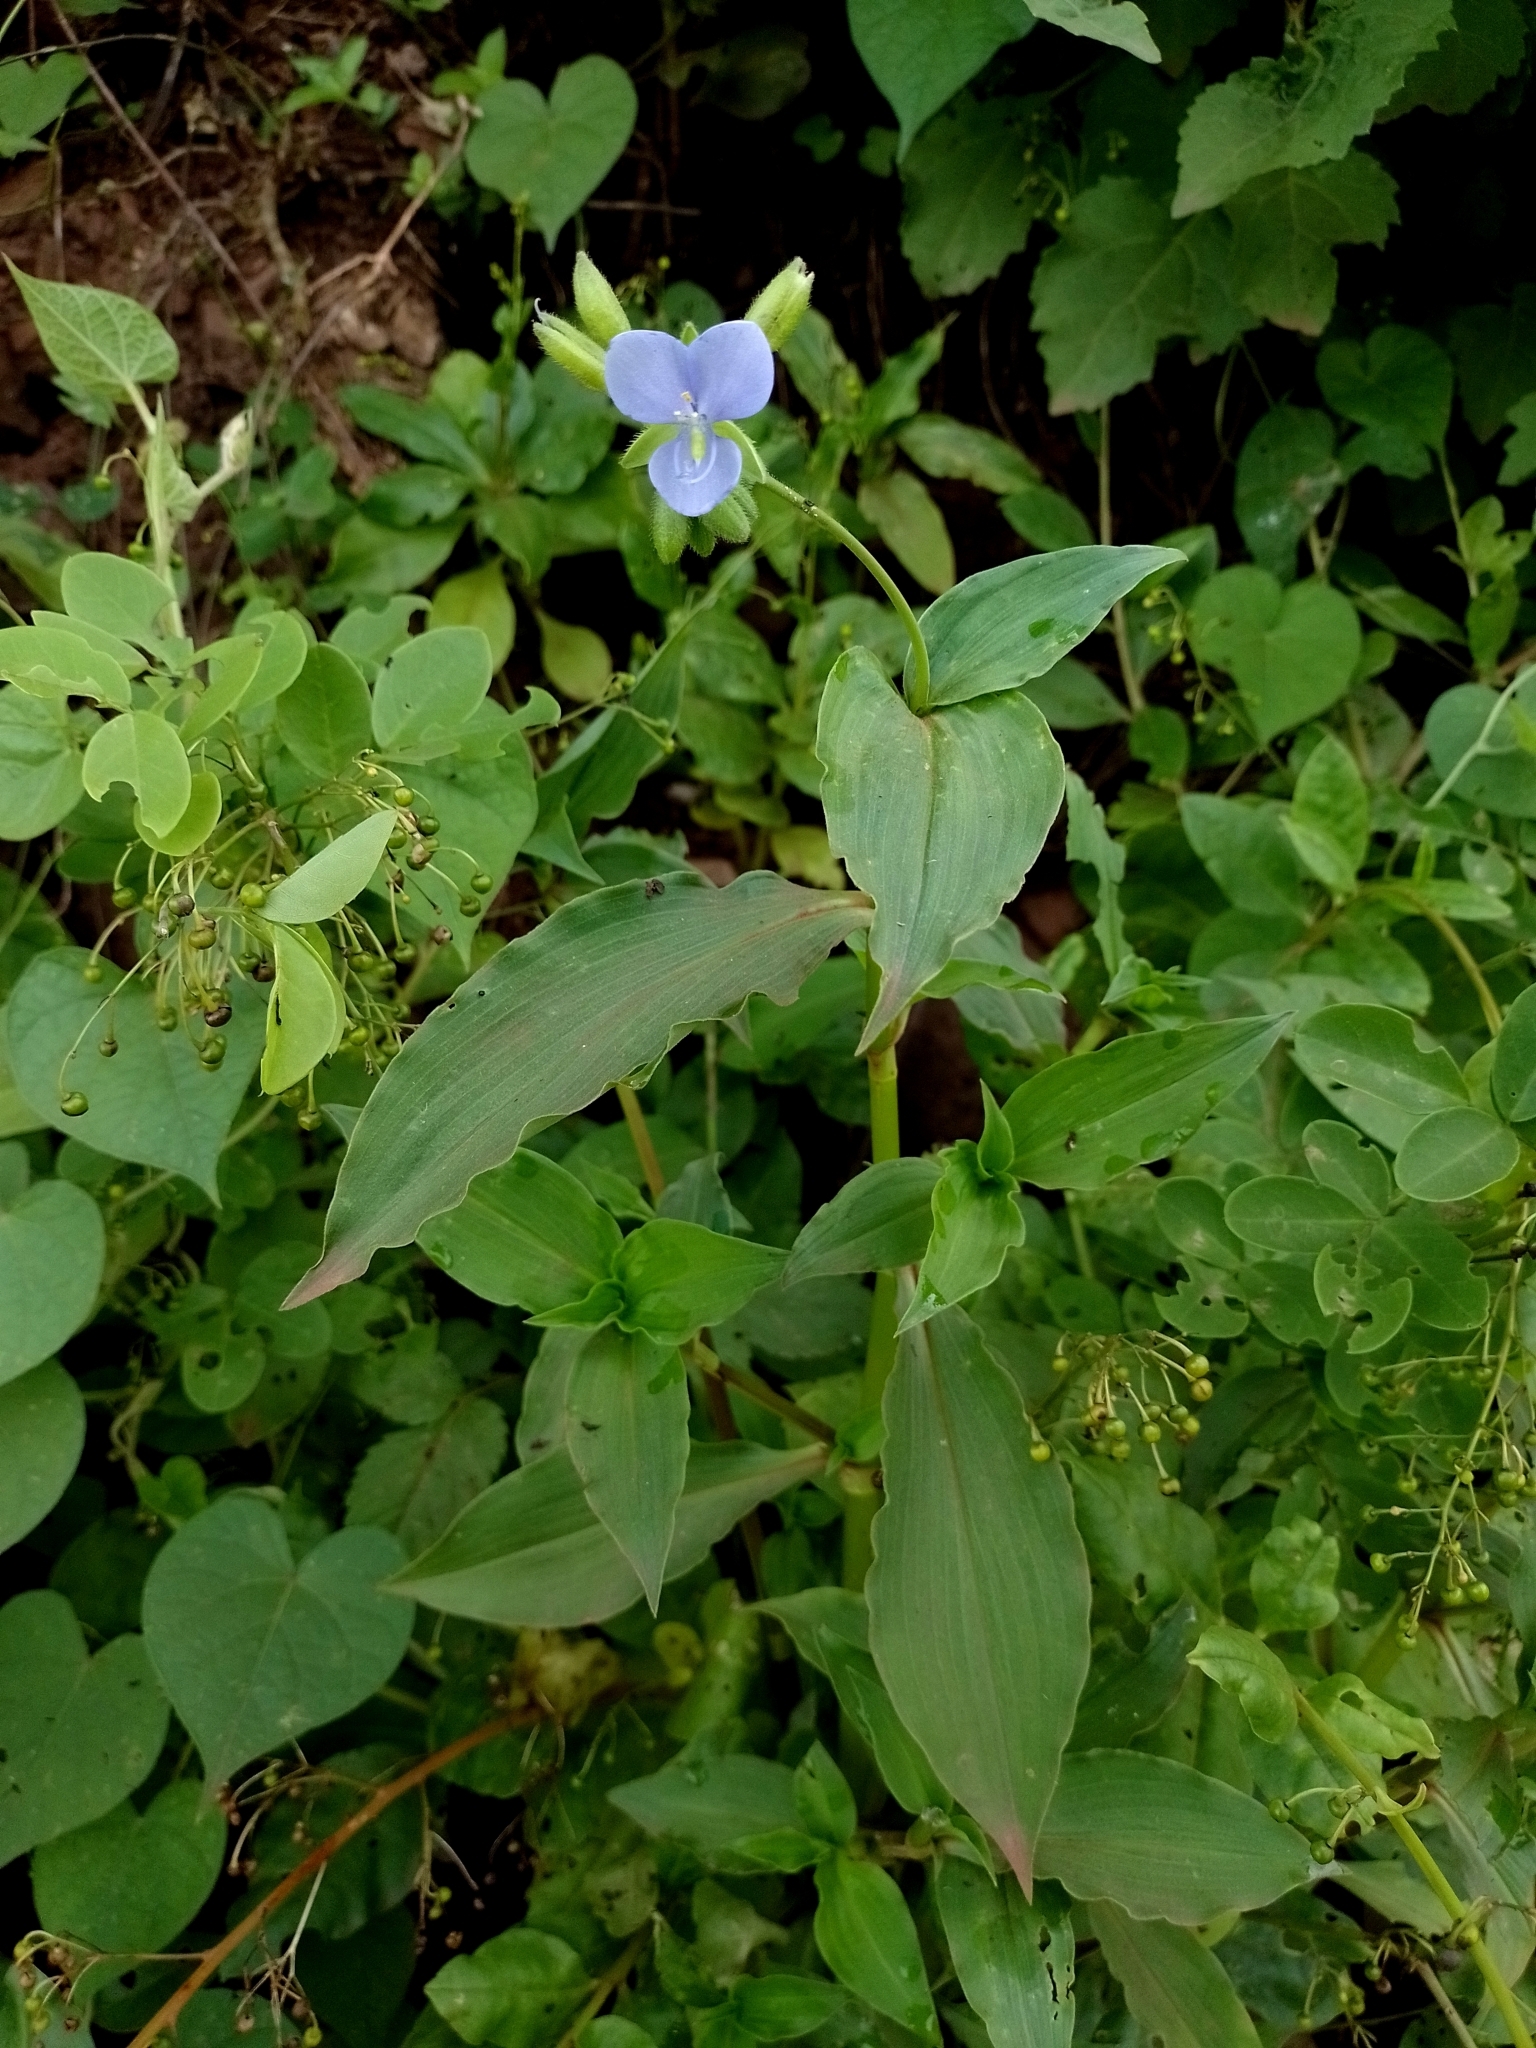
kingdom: Plantae
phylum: Tracheophyta
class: Liliopsida
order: Commelinales
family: Commelinaceae
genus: Tinantia
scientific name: Tinantia erecta
